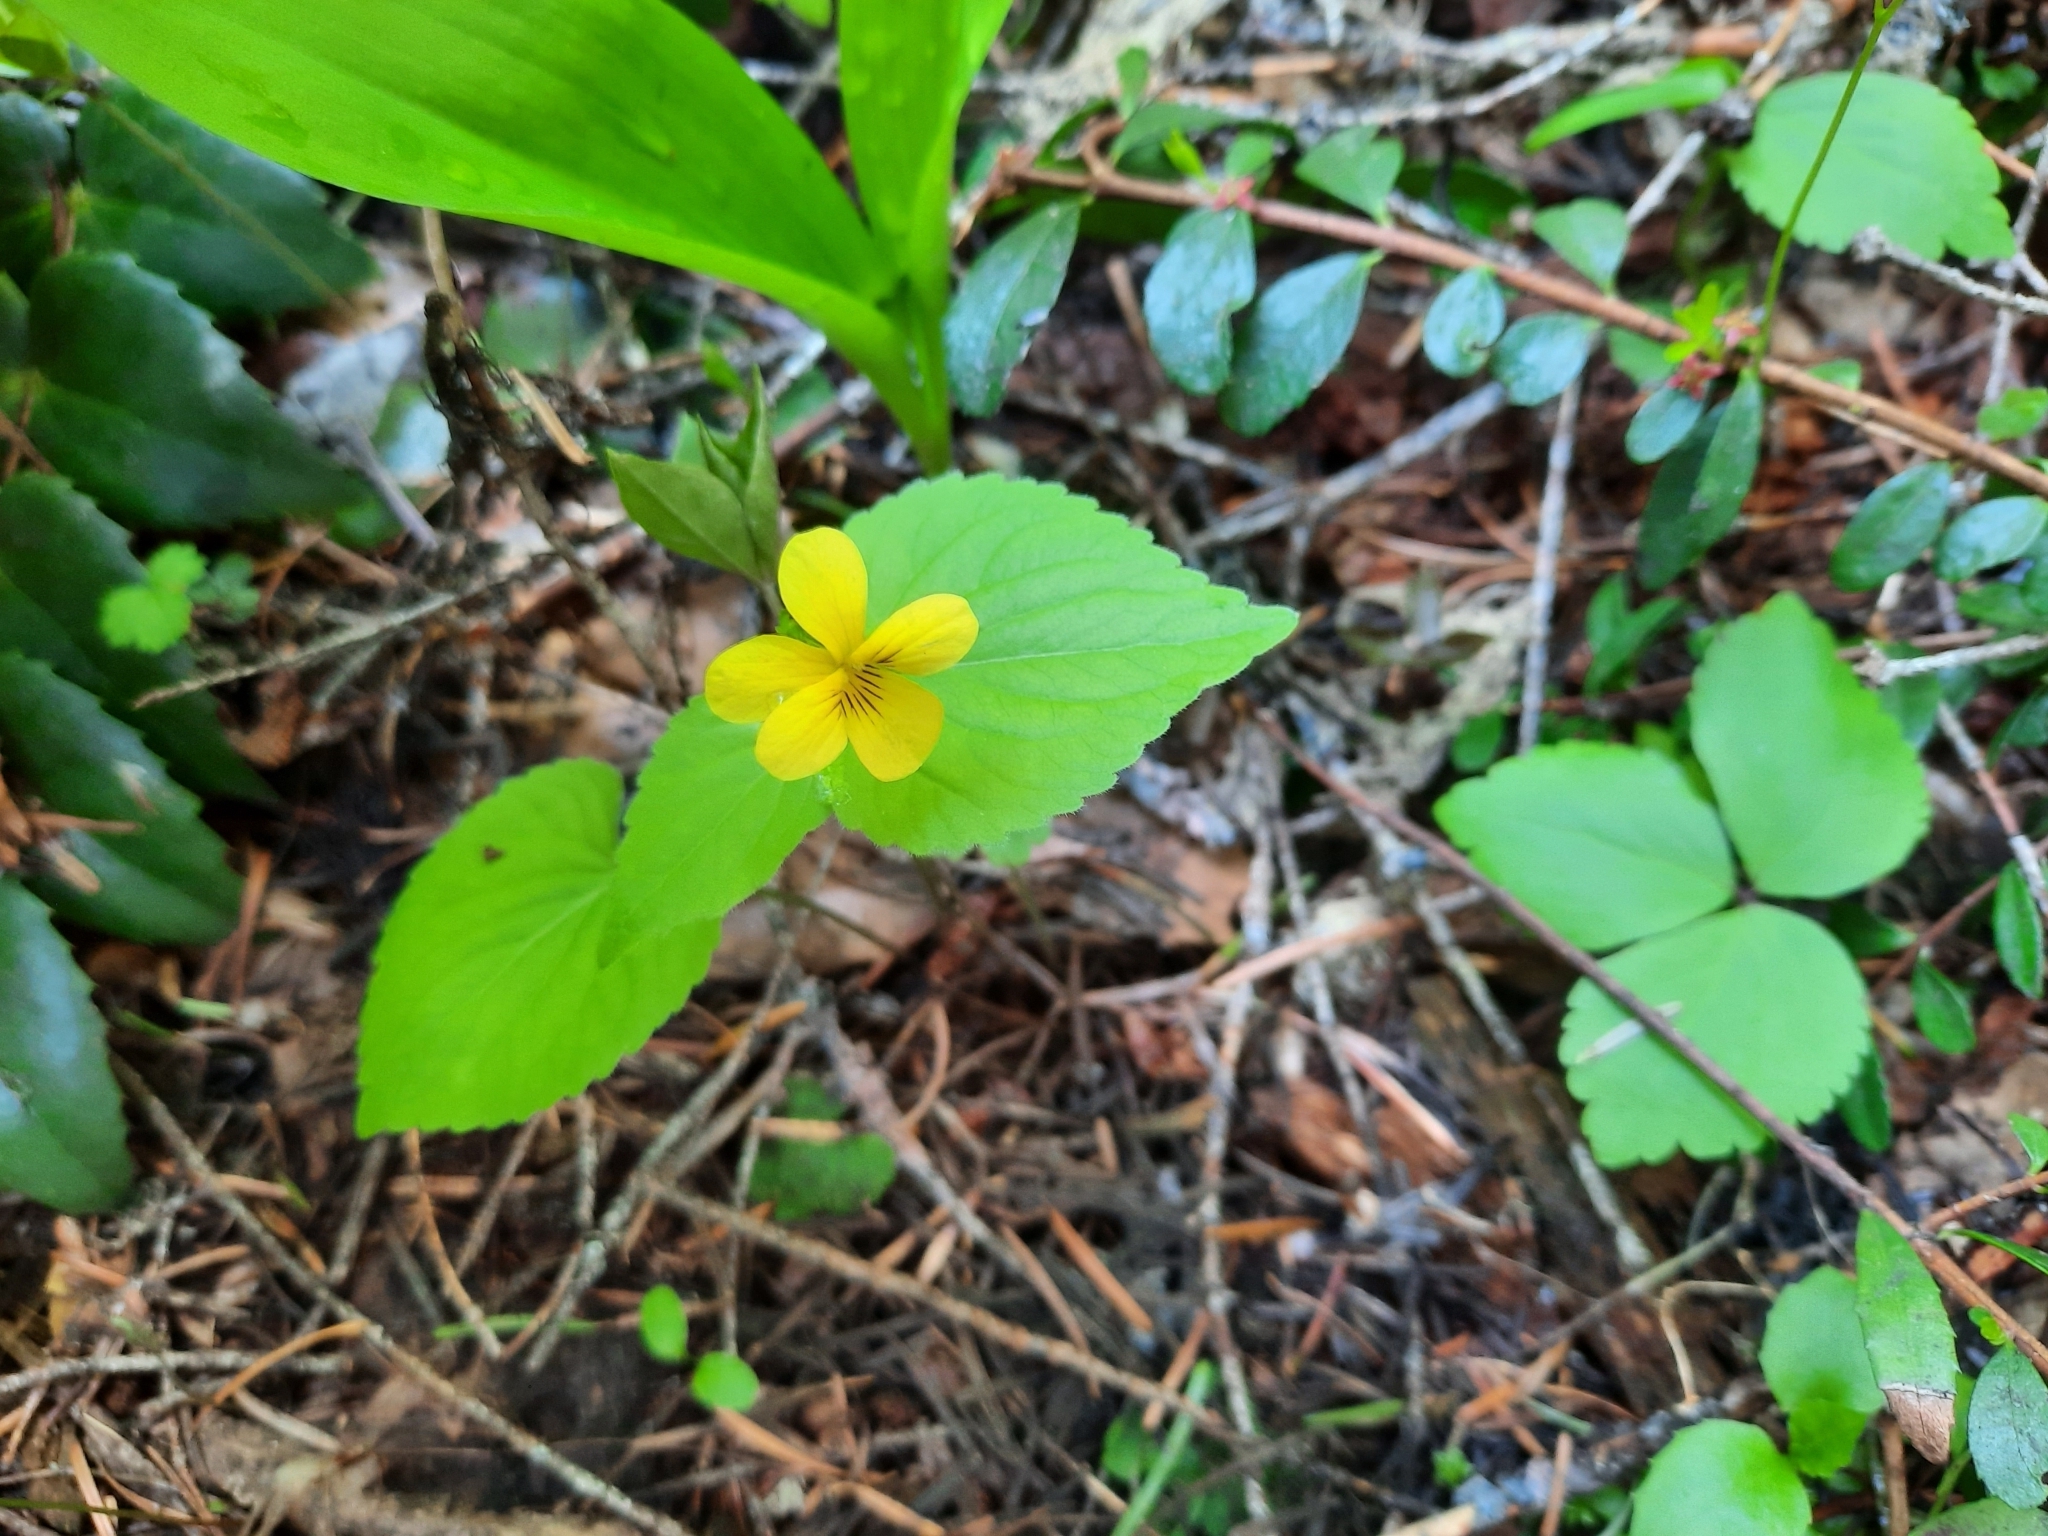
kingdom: Plantae
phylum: Tracheophyta
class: Magnoliopsida
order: Malpighiales
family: Violaceae
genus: Viola
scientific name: Viola glabella
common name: Stream violet
